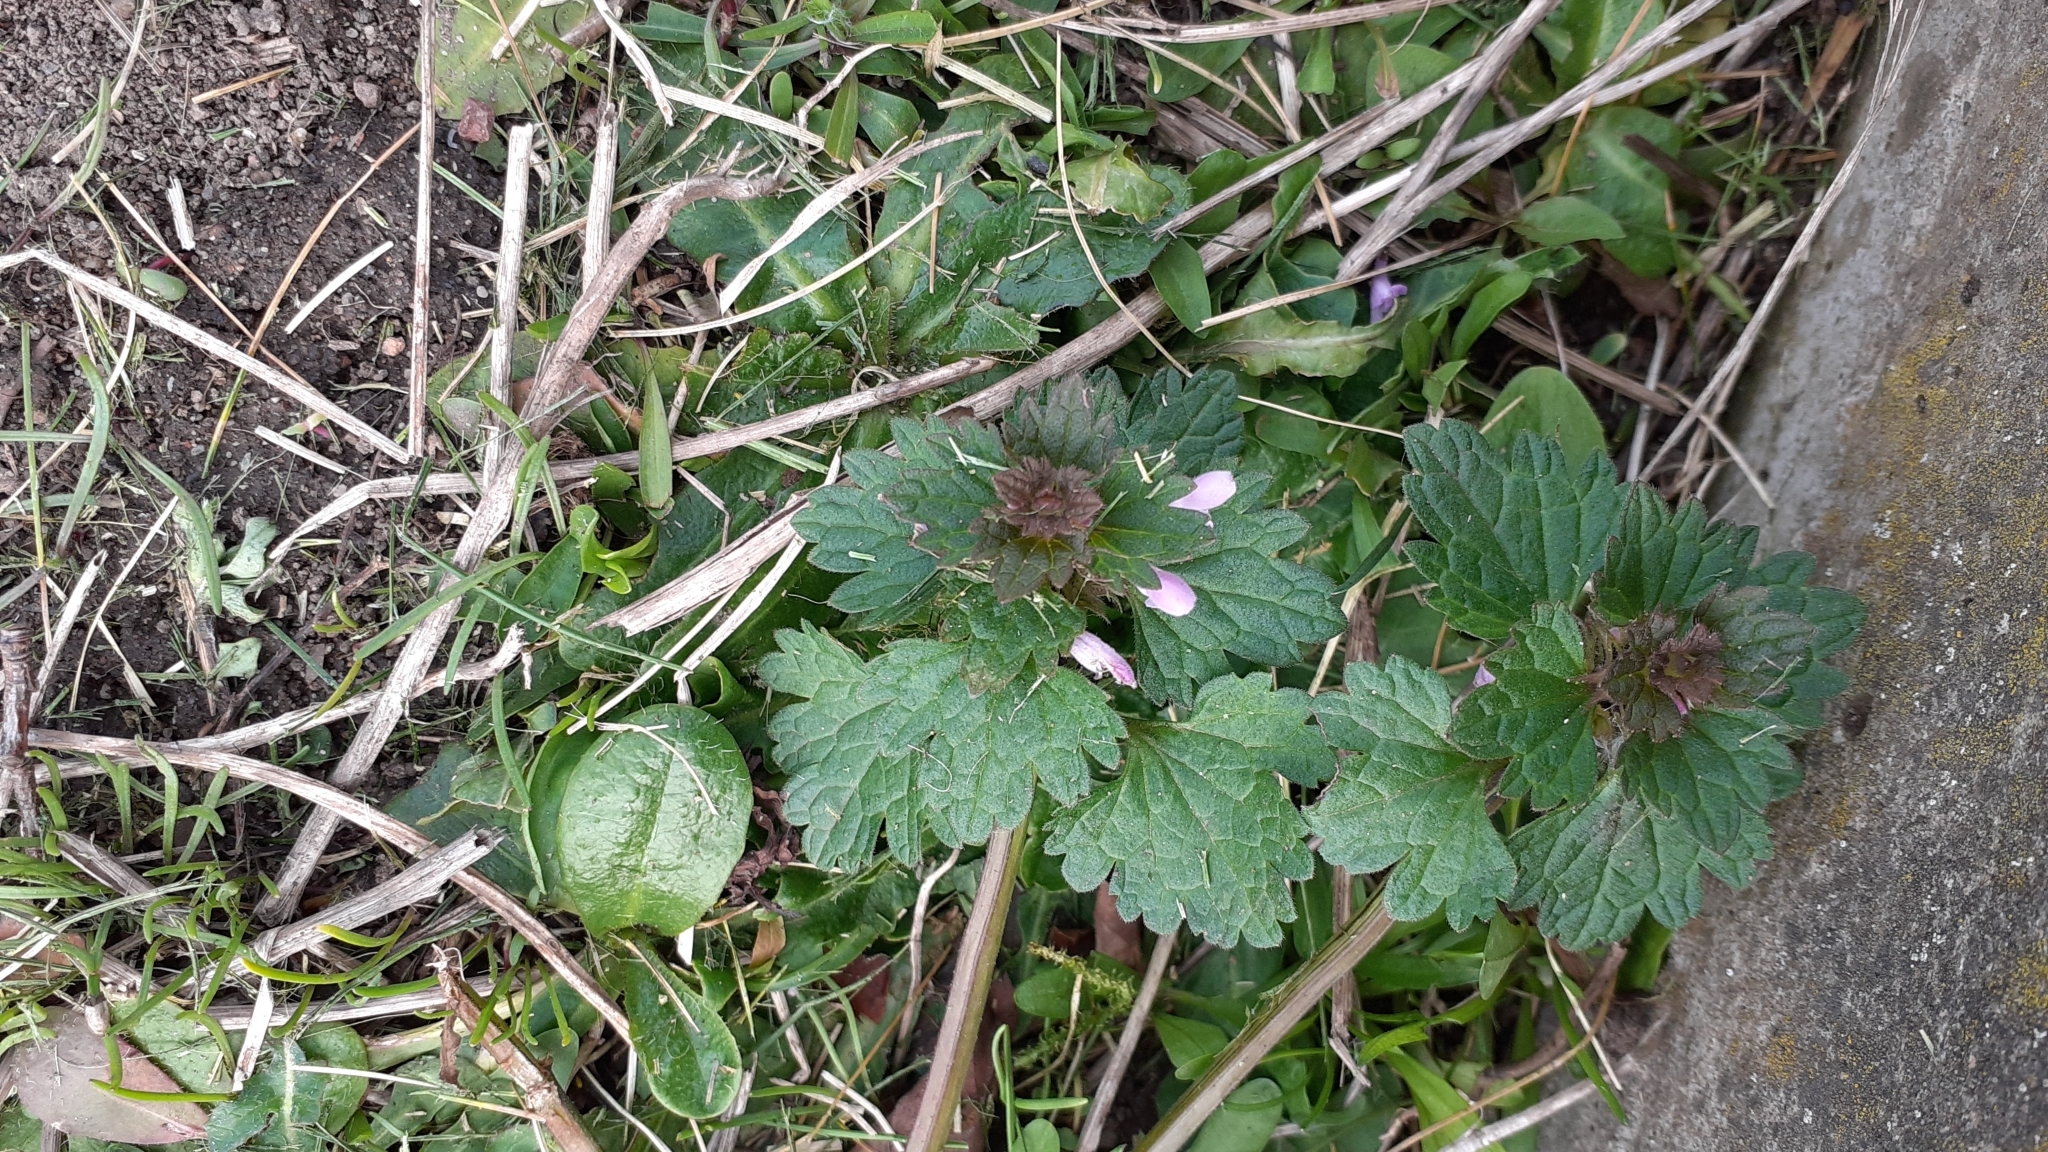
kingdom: Plantae
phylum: Tracheophyta
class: Magnoliopsida
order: Lamiales
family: Lamiaceae
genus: Lamium
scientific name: Lamium hybridum
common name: Cut-leaved dead-nettle
